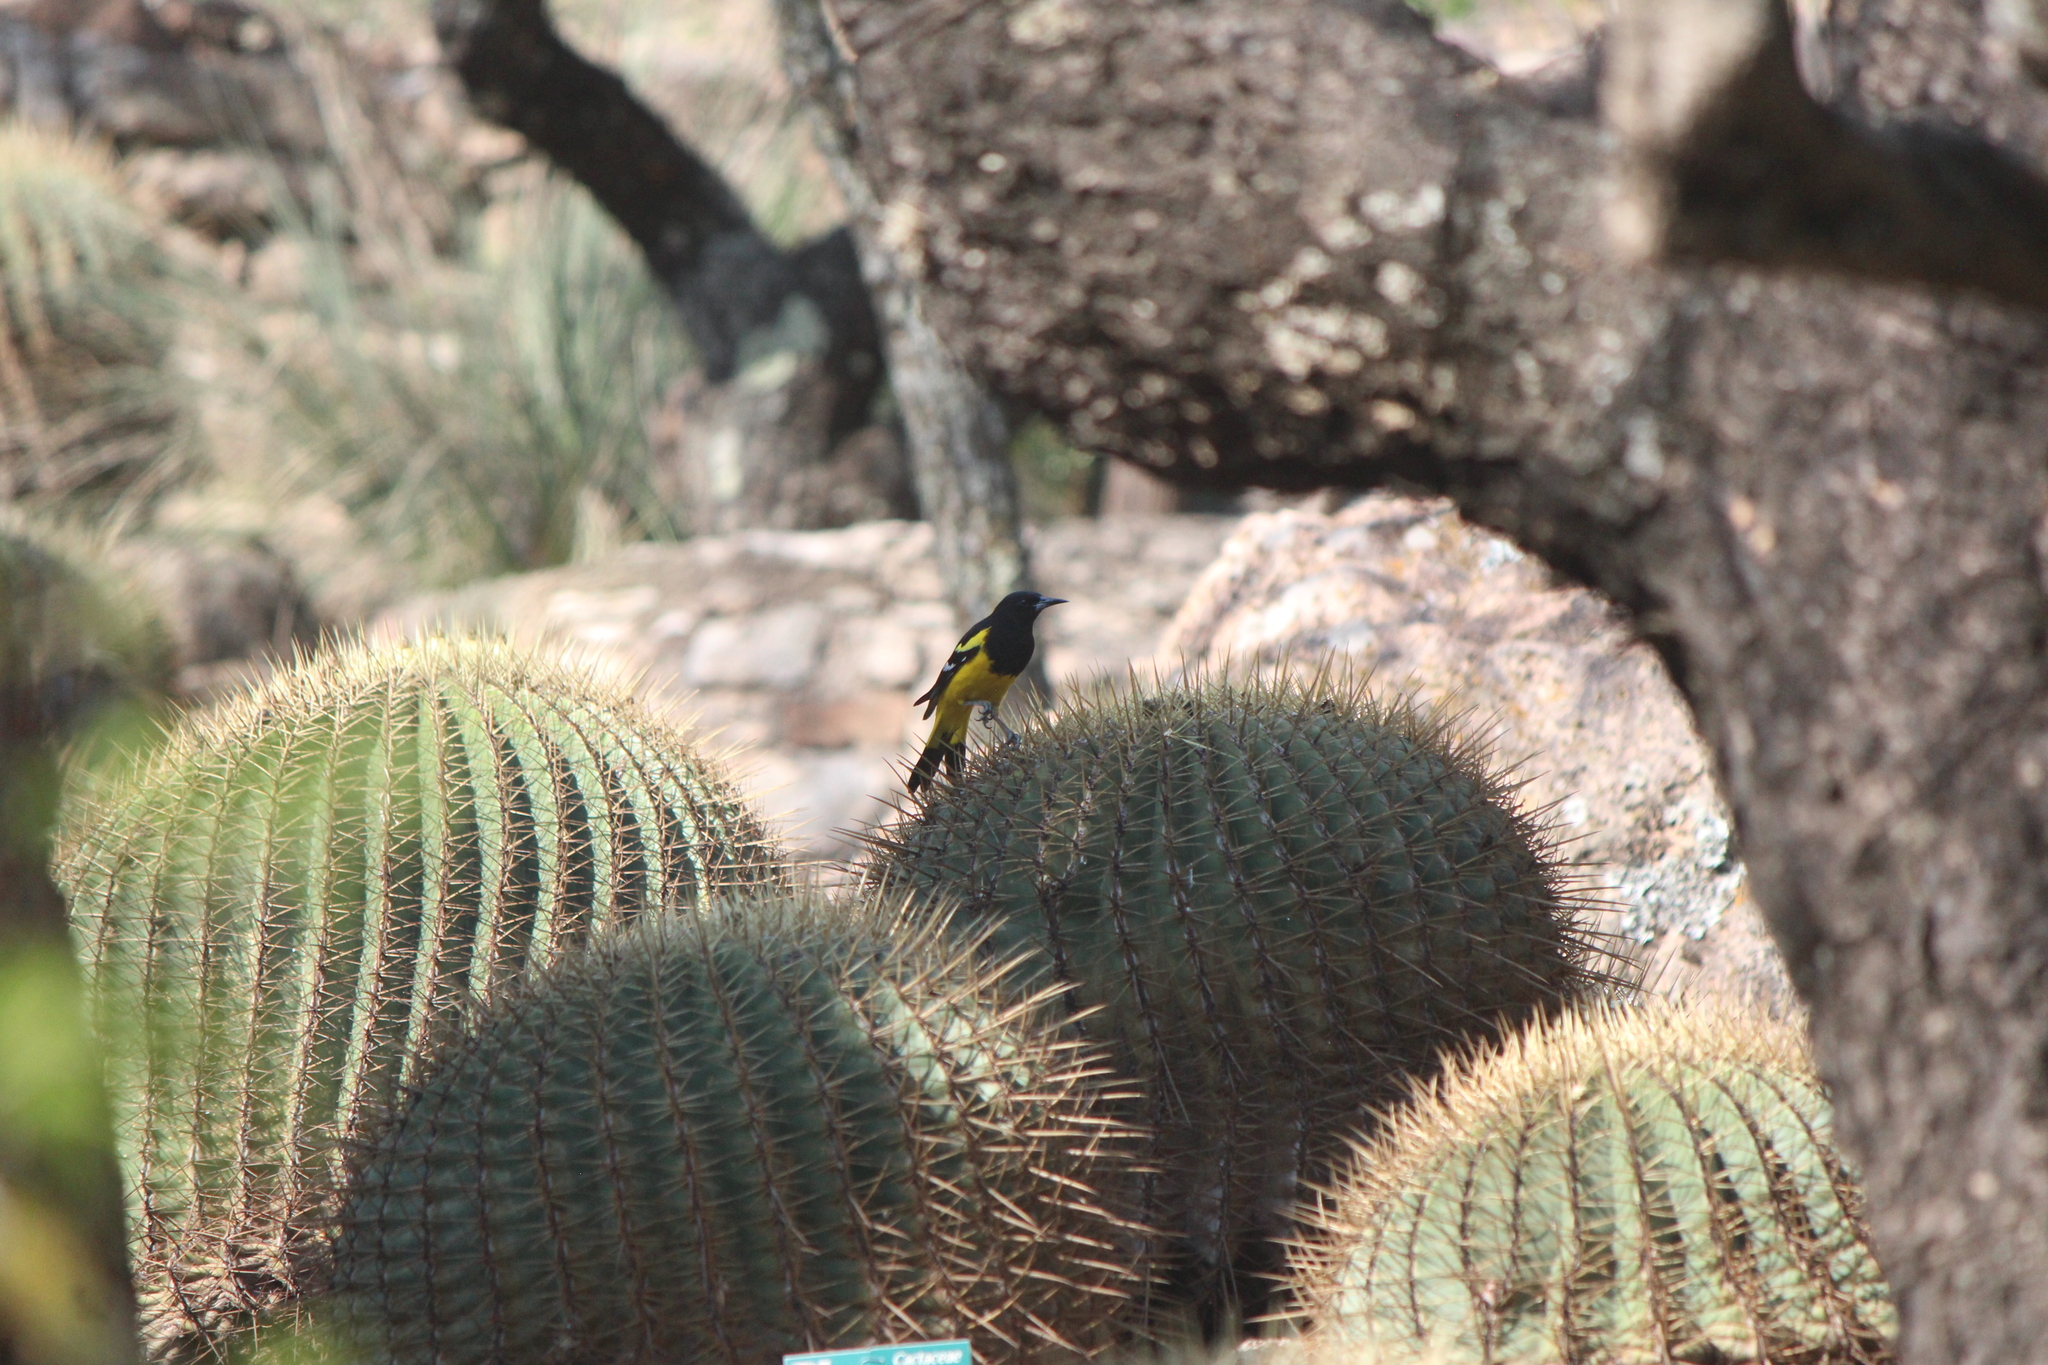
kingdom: Animalia
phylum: Chordata
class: Aves
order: Passeriformes
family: Icteridae
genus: Icterus
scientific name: Icterus parisorum
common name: Scott's oriole
